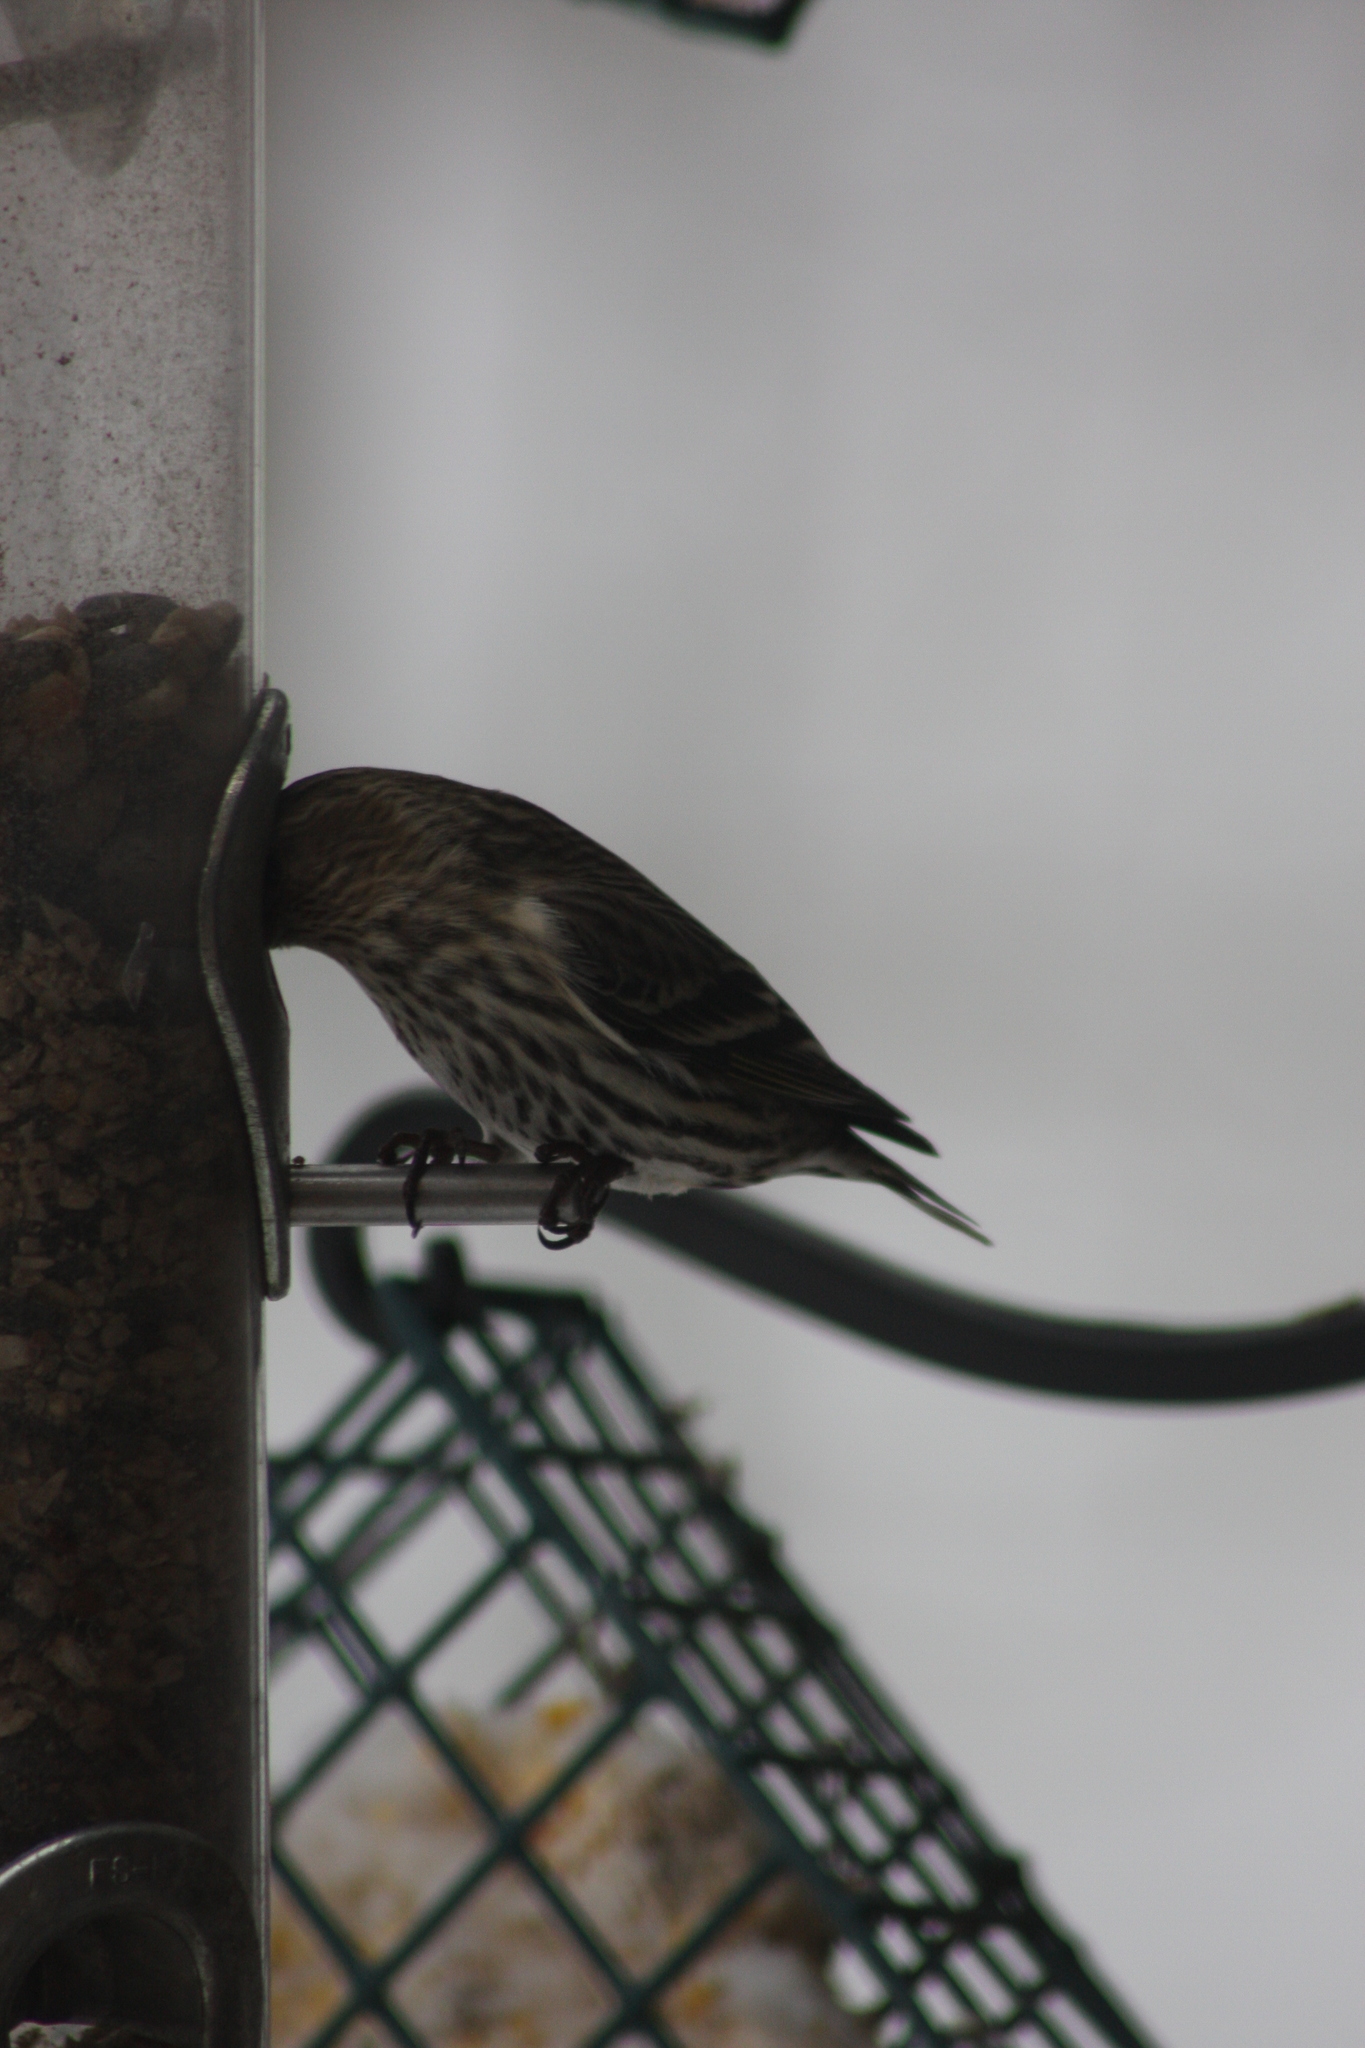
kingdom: Animalia
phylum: Chordata
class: Aves
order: Passeriformes
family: Fringillidae
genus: Spinus
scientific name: Spinus pinus
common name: Pine siskin
